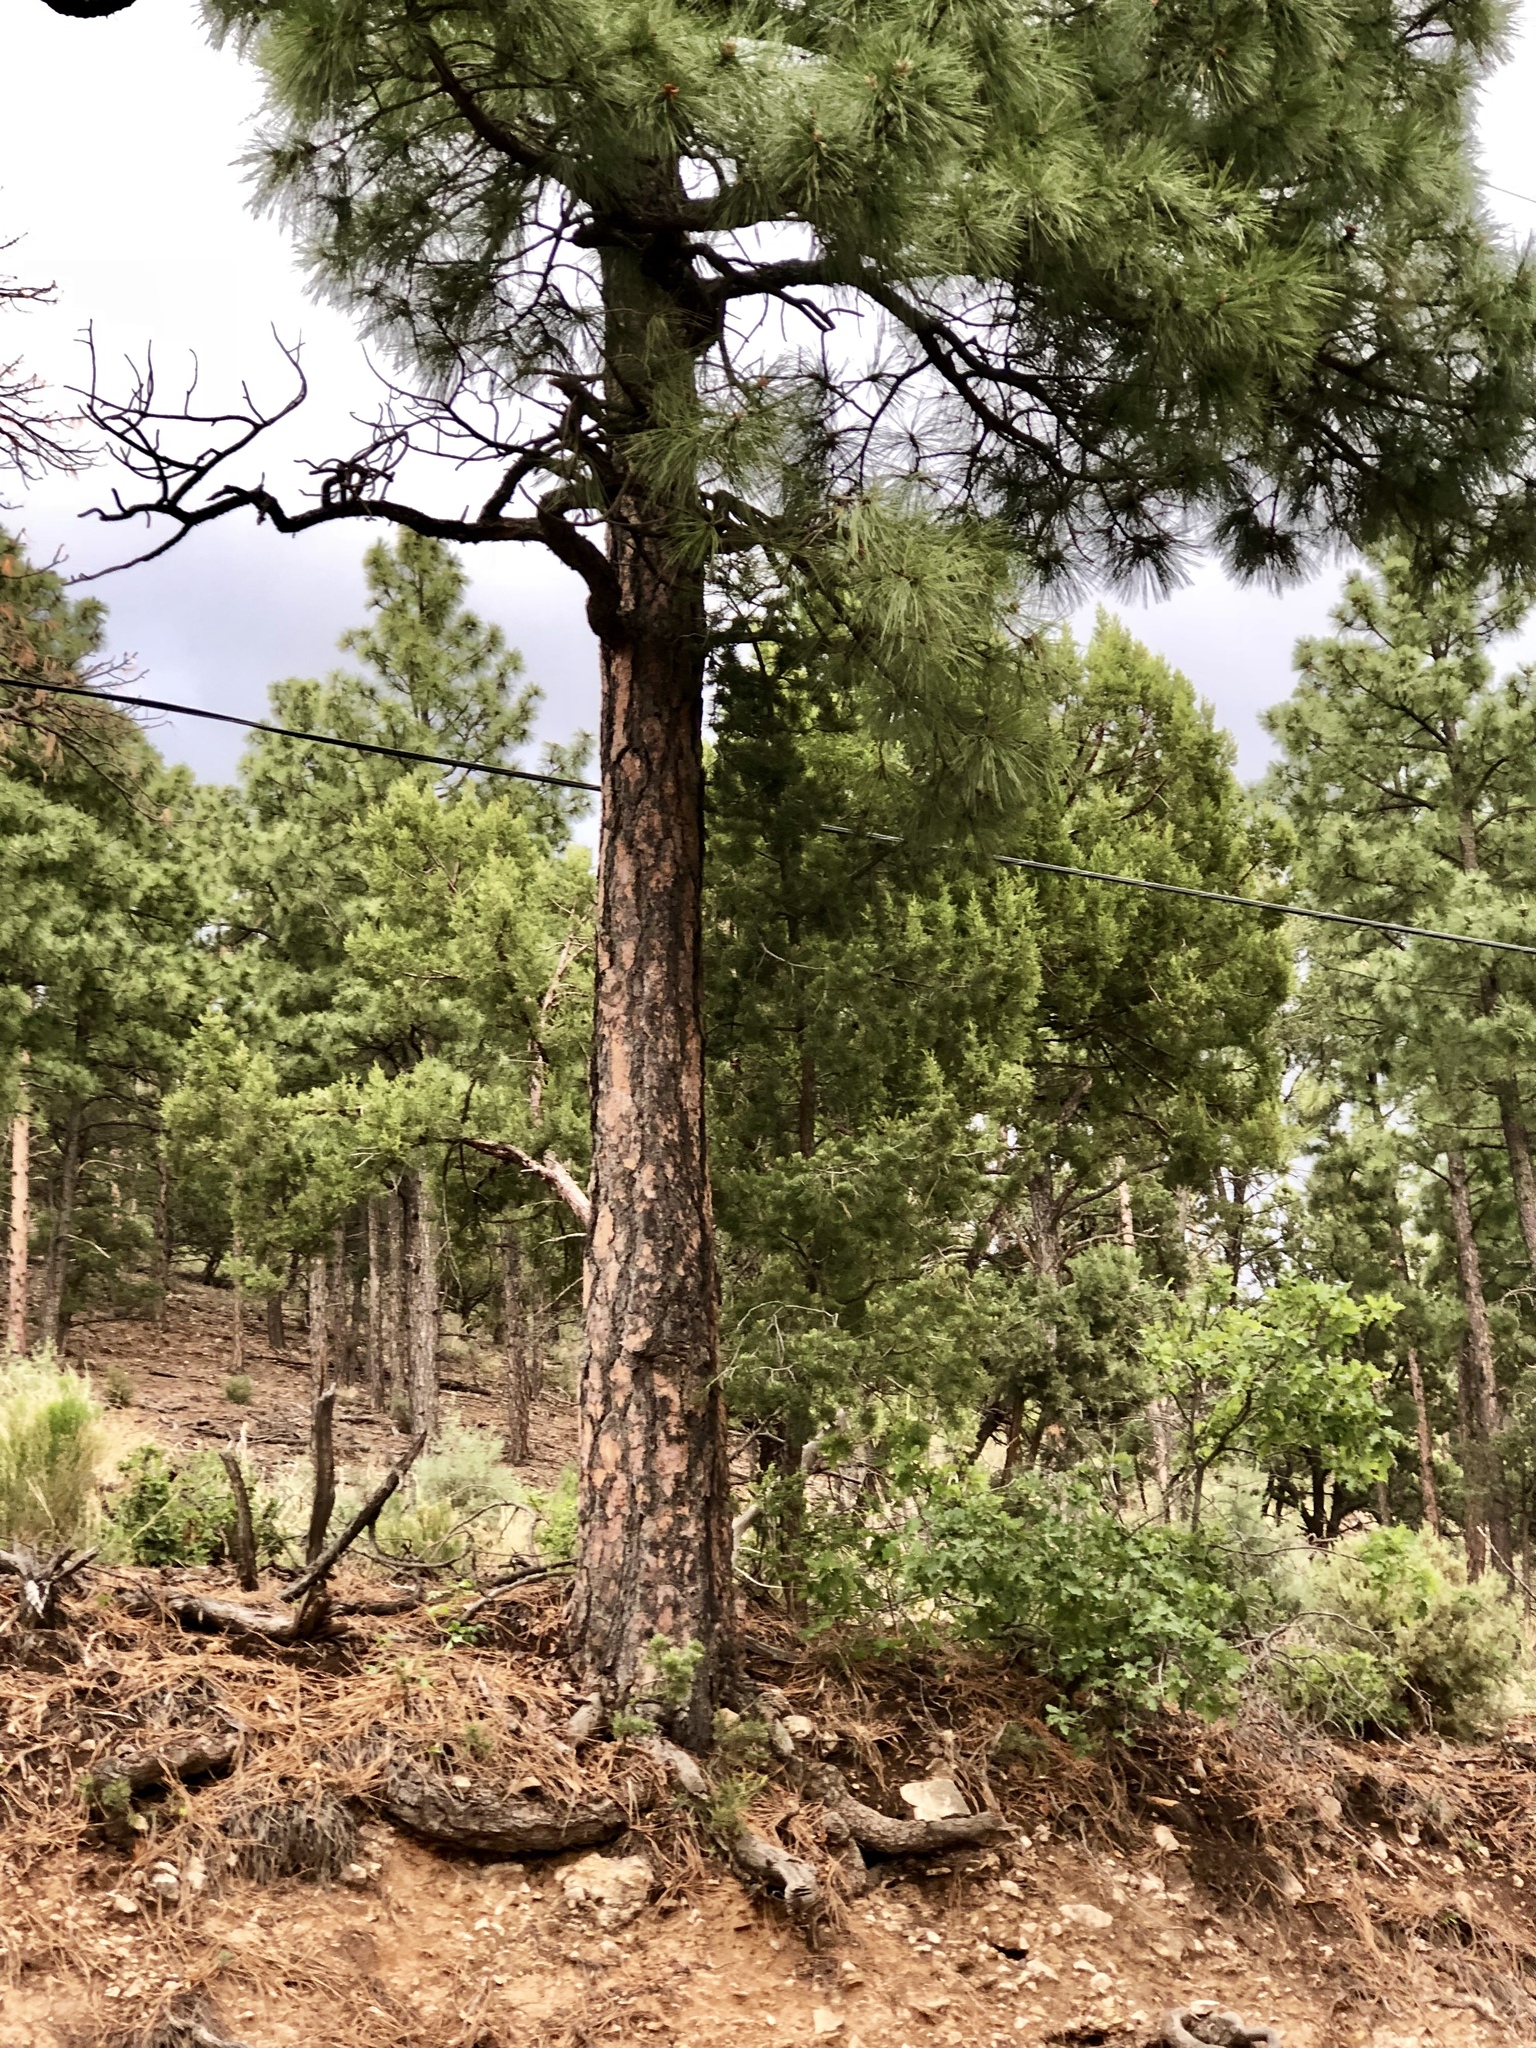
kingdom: Plantae
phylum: Tracheophyta
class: Pinopsida
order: Pinales
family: Pinaceae
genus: Pinus
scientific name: Pinus ponderosa
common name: Western yellow-pine
